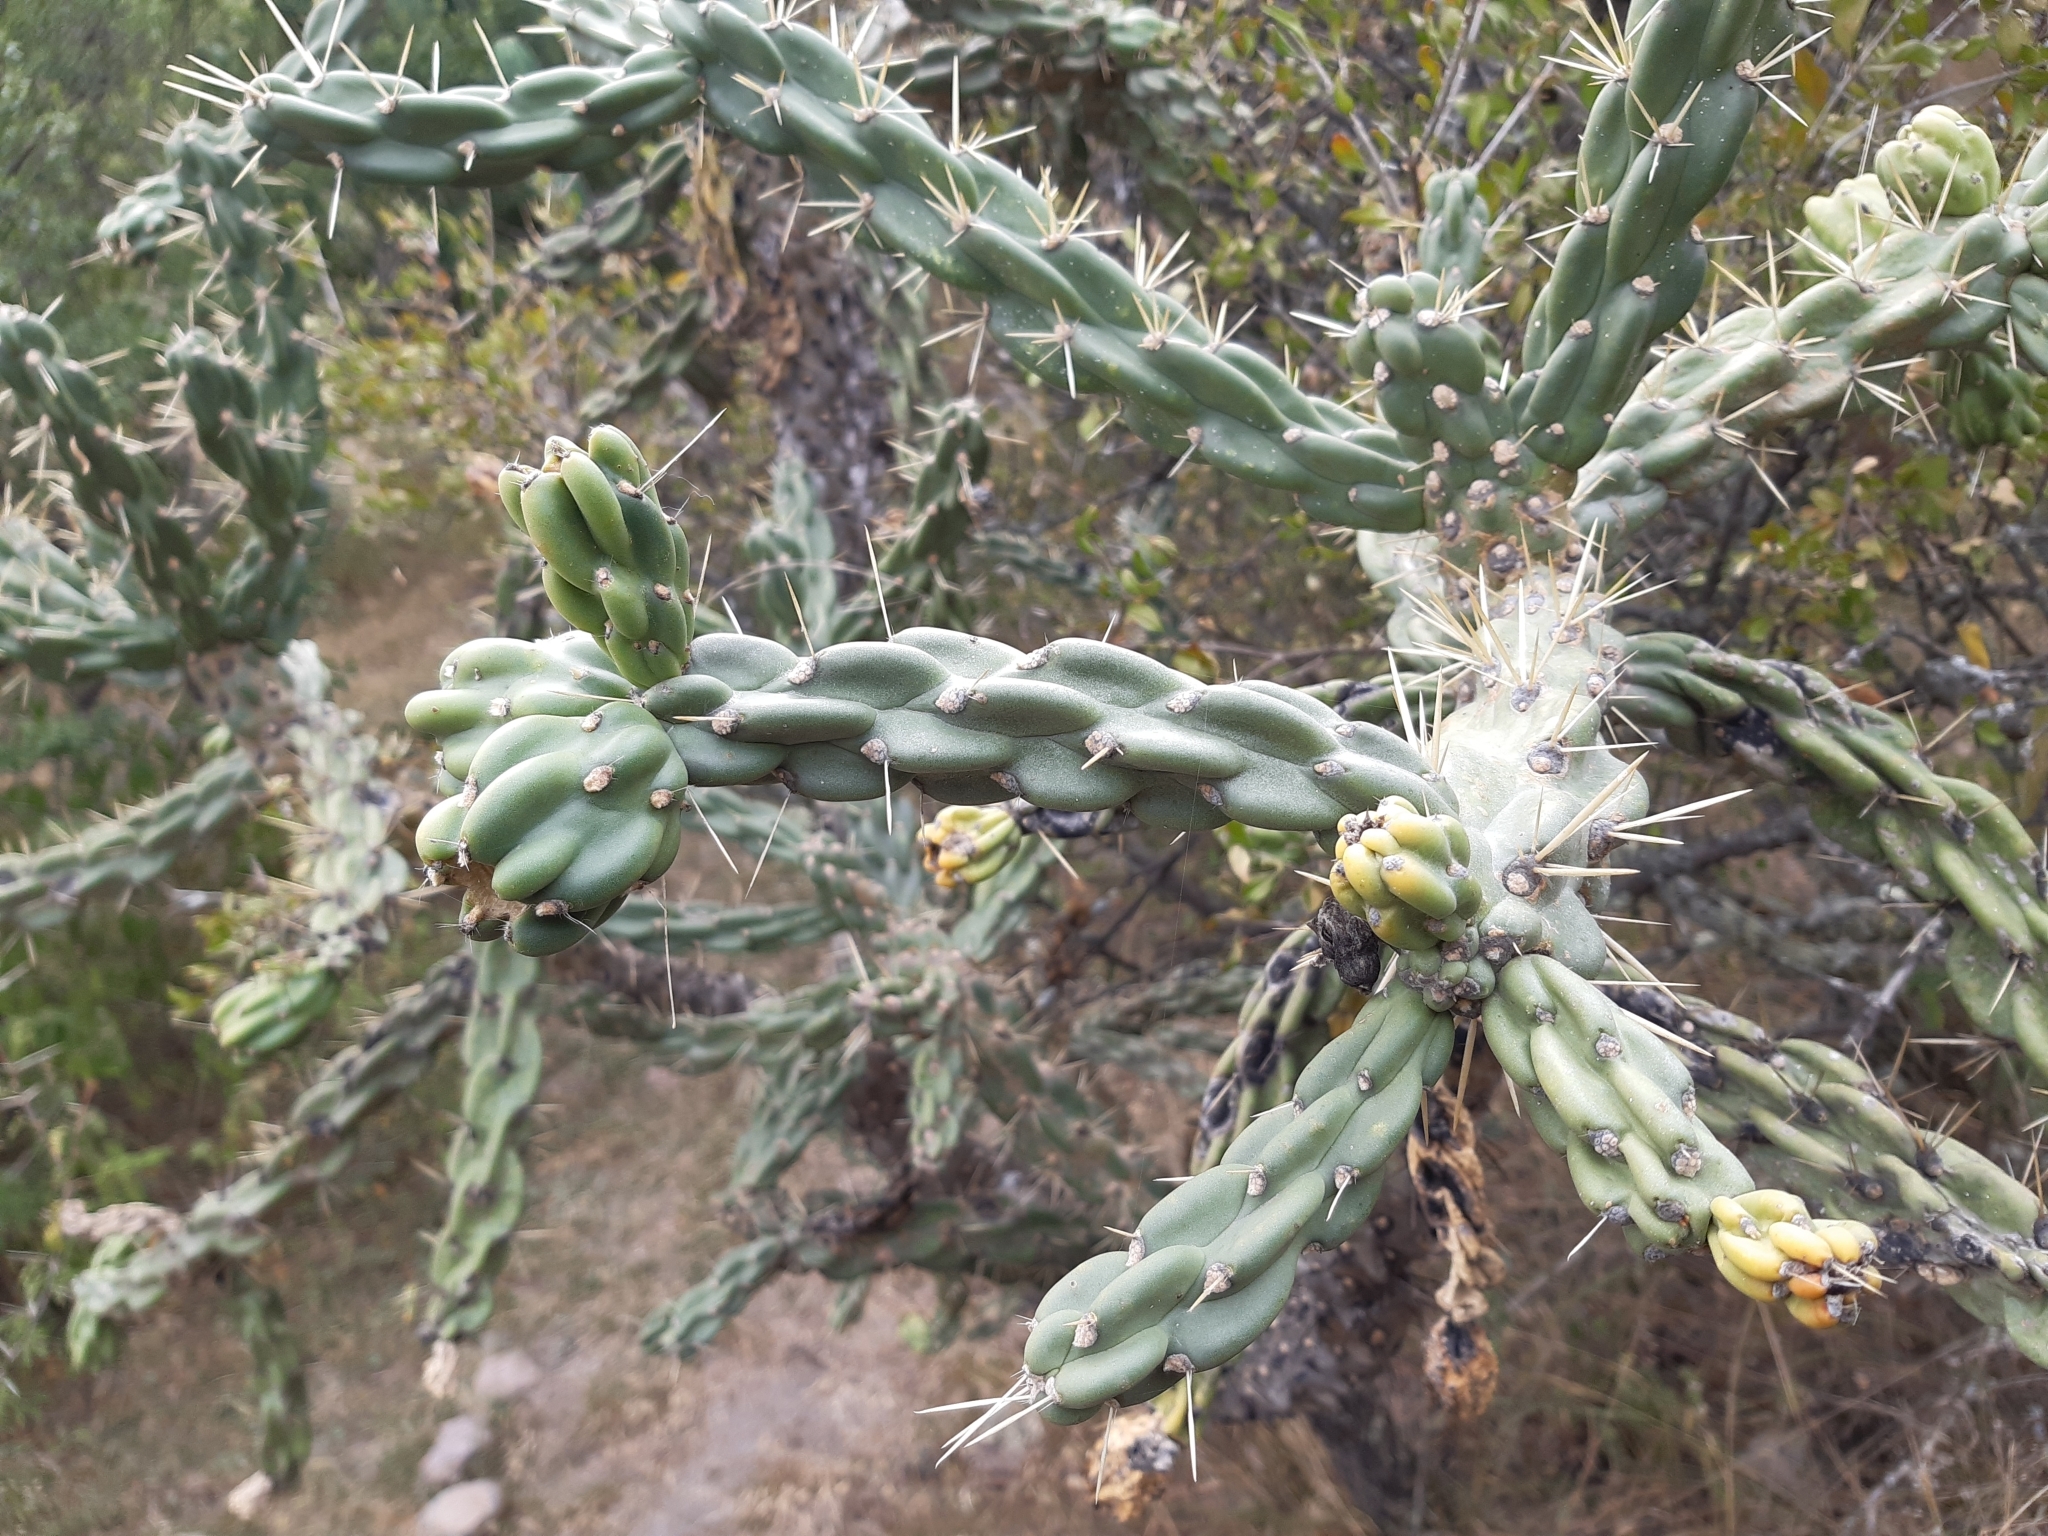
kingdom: Plantae
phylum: Tracheophyta
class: Magnoliopsida
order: Caryophyllales
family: Cactaceae
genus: Cylindropuntia
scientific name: Cylindropuntia imbricata
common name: Candelabrum cactus
